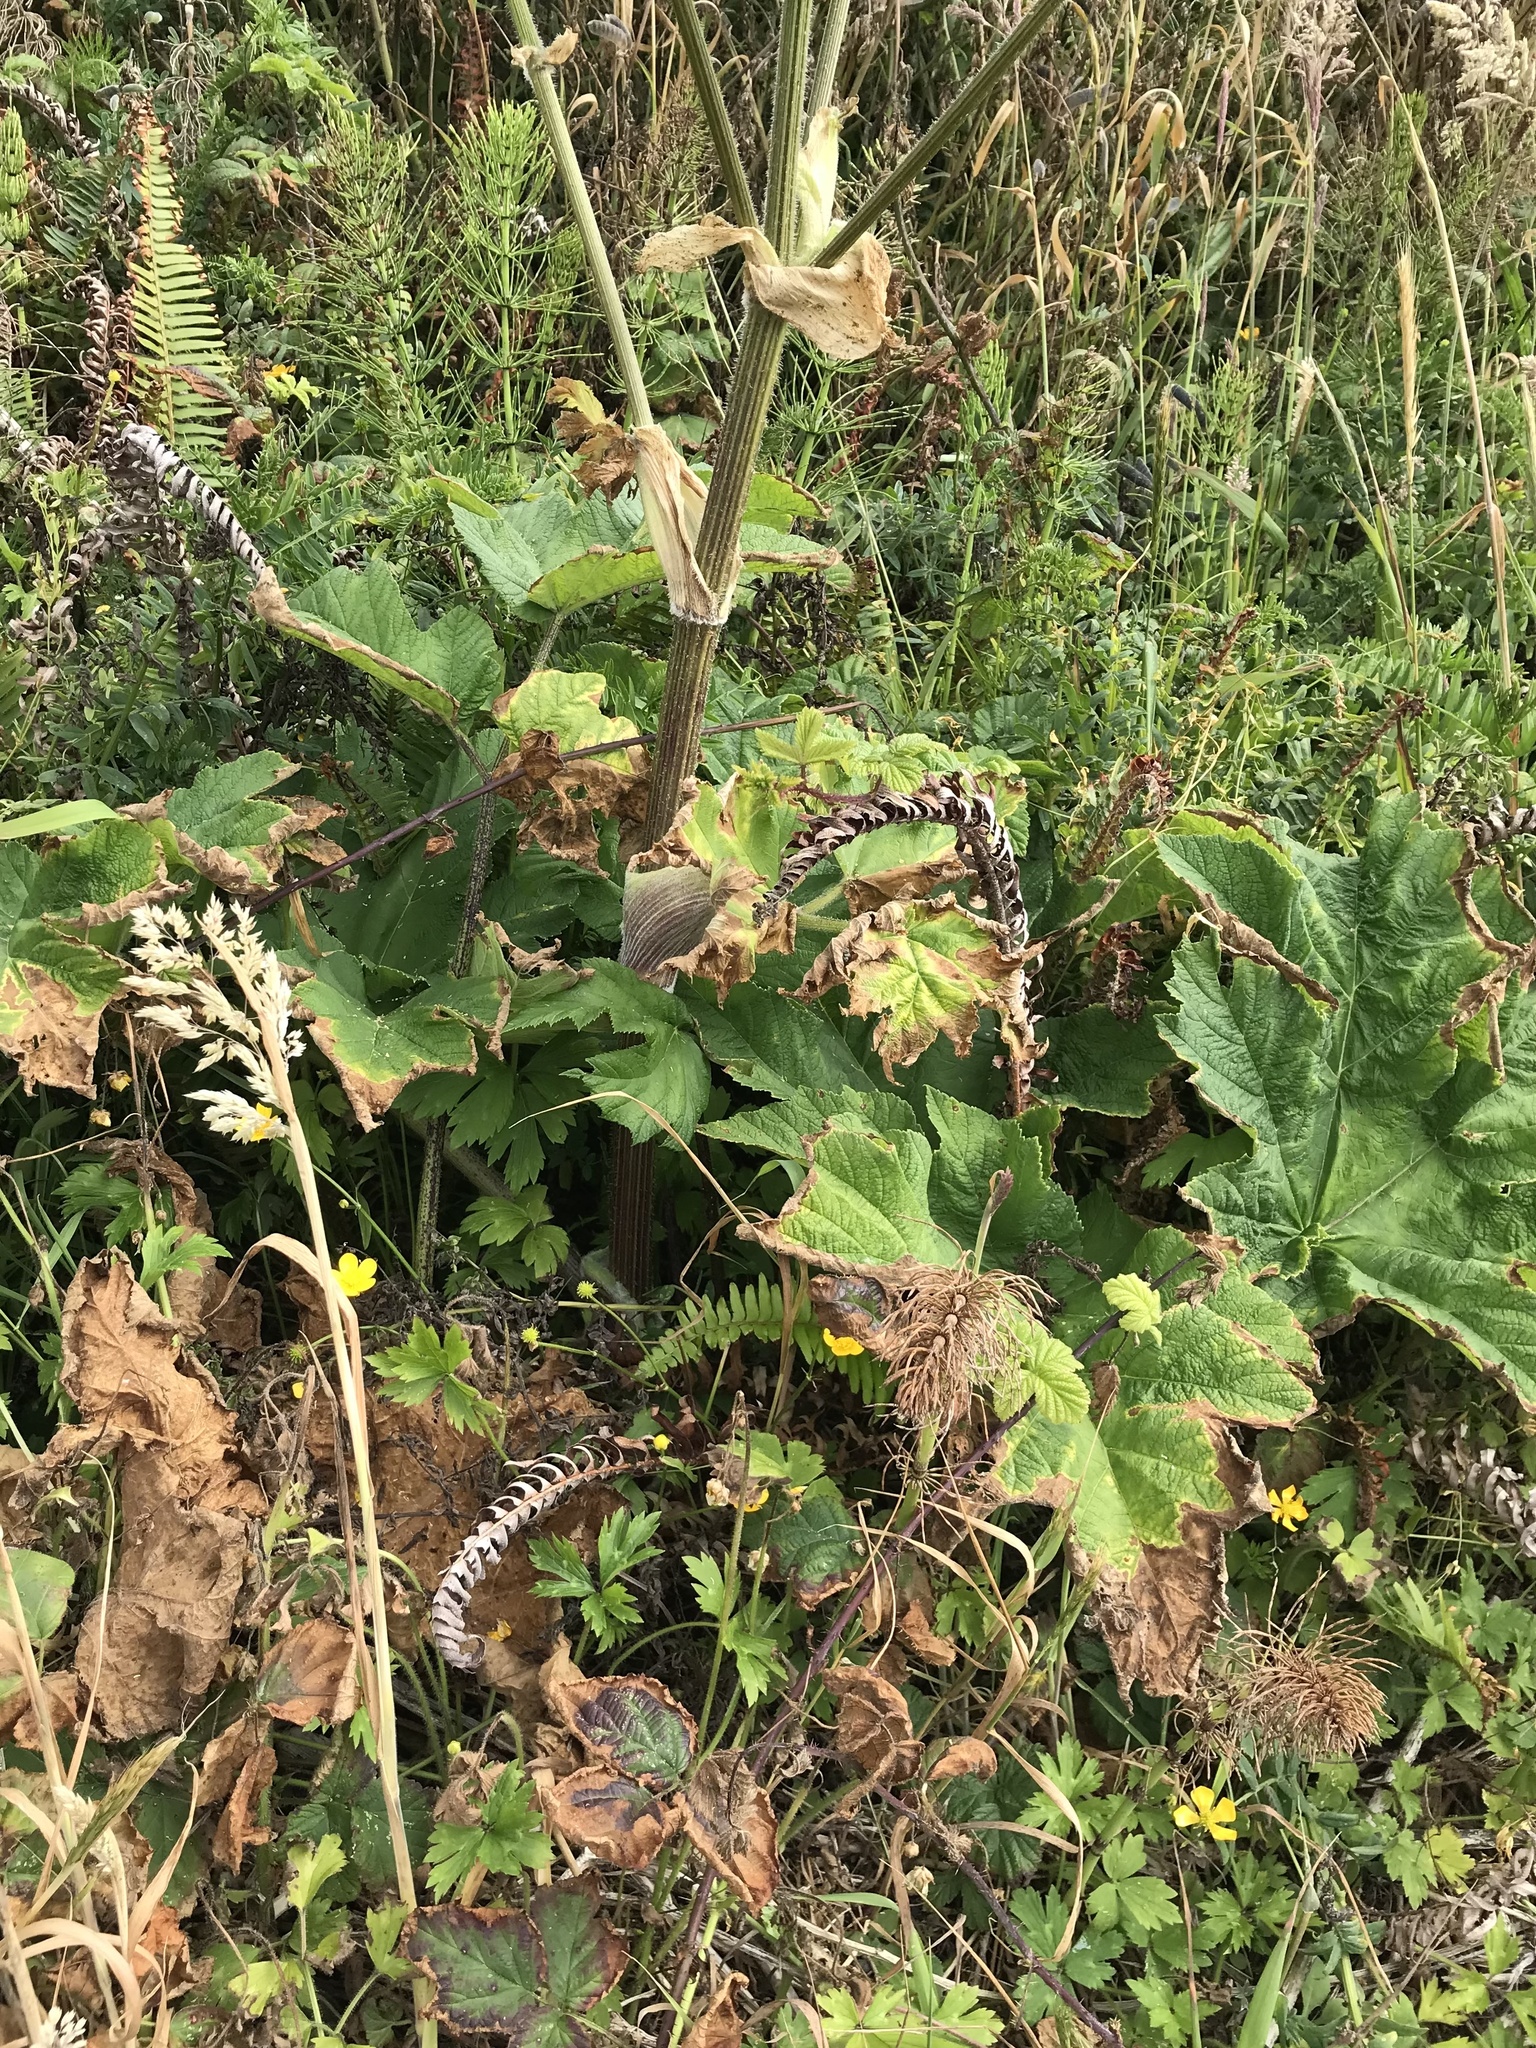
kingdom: Plantae
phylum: Tracheophyta
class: Magnoliopsida
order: Apiales
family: Apiaceae
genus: Heracleum
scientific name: Heracleum maximum
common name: American cow parsnip
